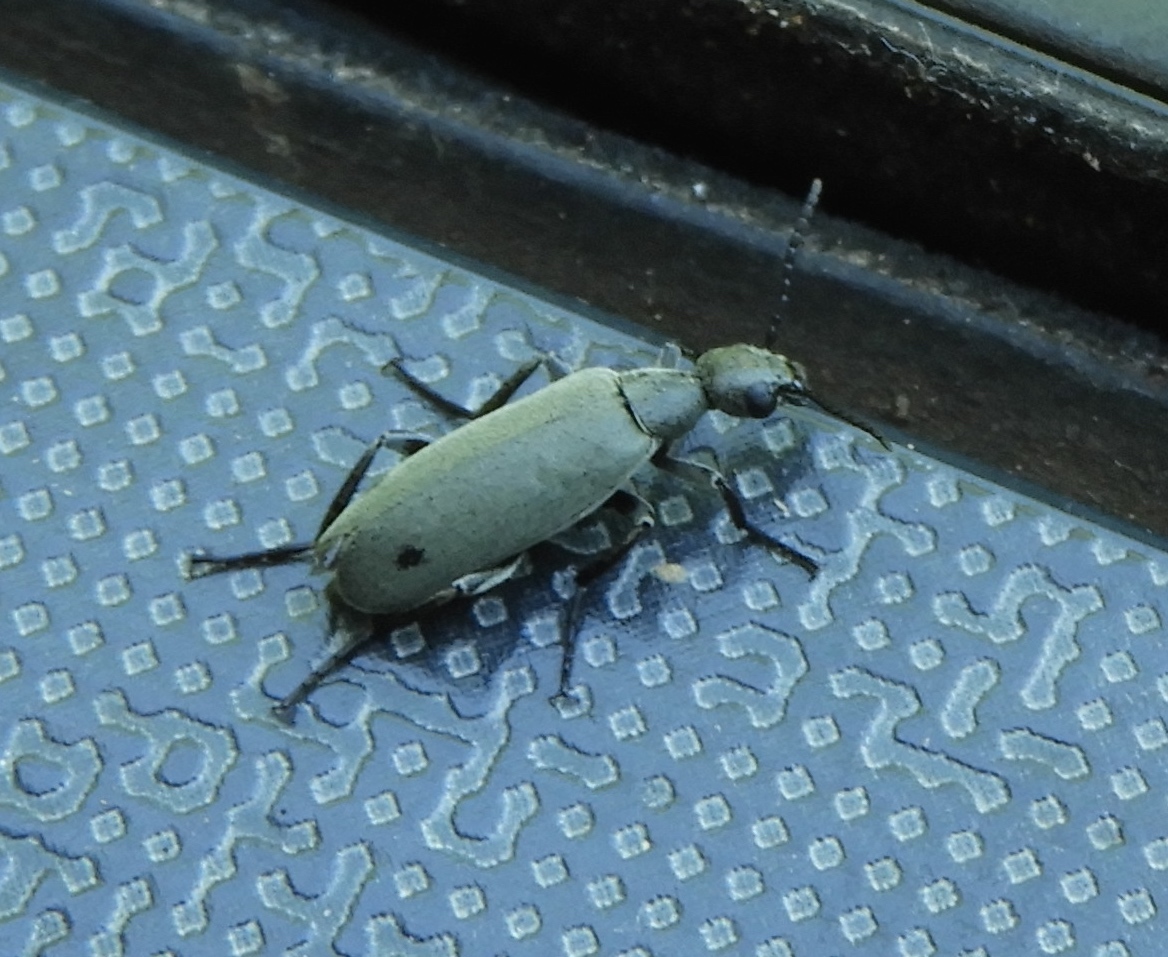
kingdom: Animalia
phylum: Arthropoda
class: Insecta
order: Coleoptera
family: Meloidae
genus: Epicauta
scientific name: Epicauta
